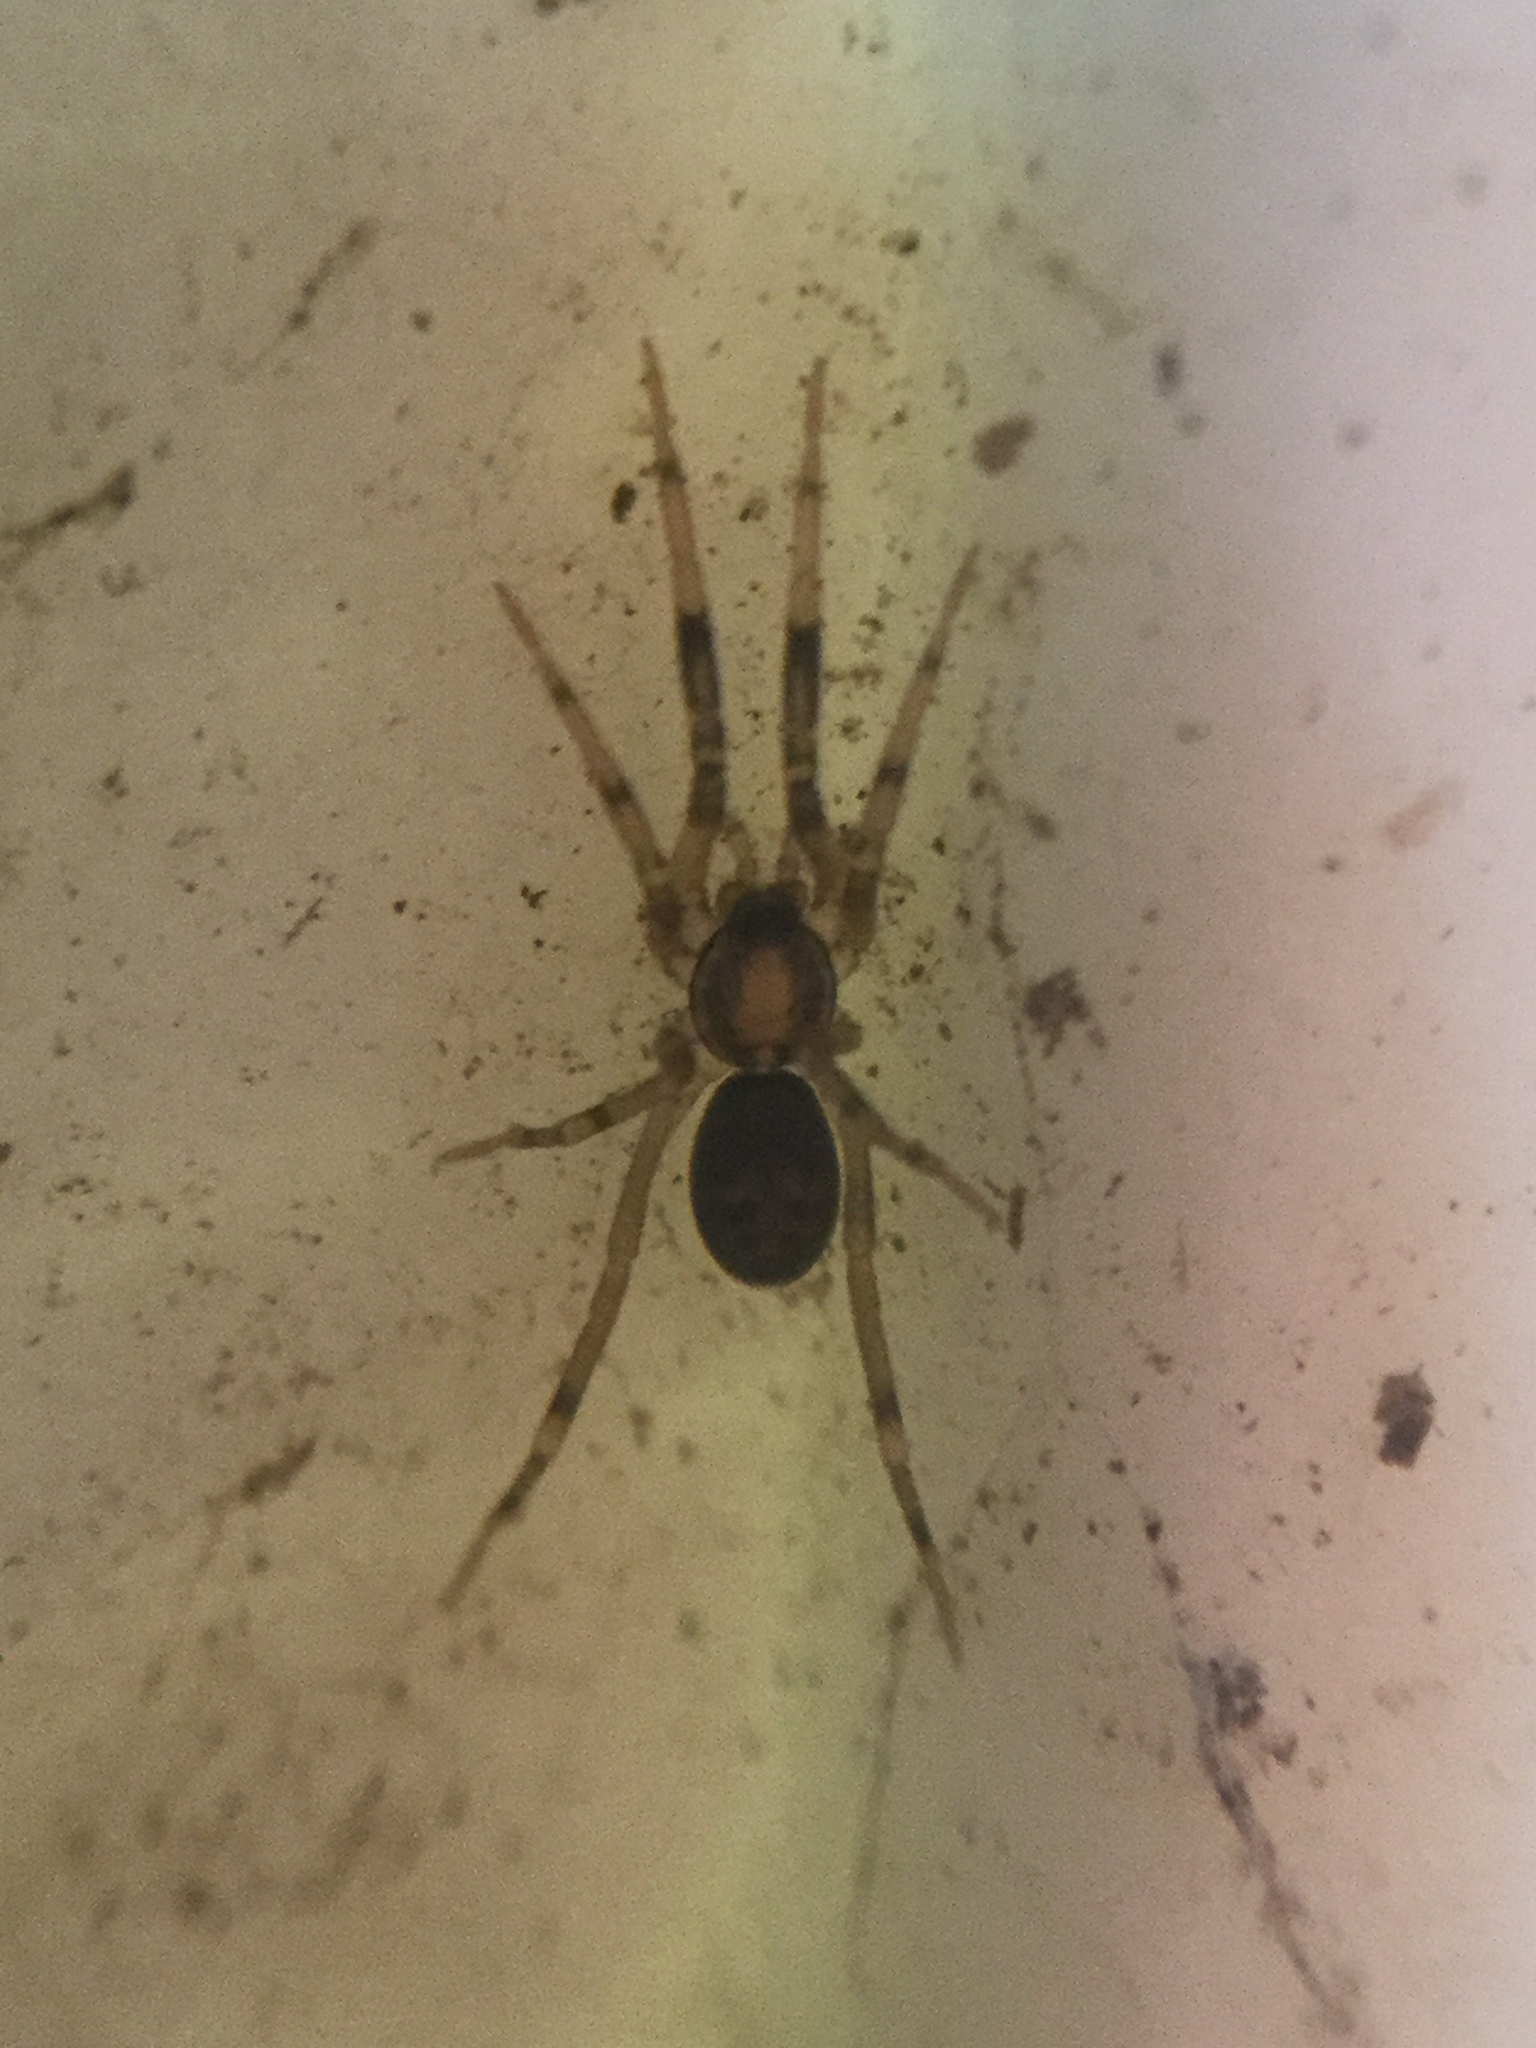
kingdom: Animalia
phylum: Arthropoda
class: Arachnida
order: Araneae
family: Phrurolithidae
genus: Phrurotimpus
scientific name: Phrurotimpus borealis
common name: Greater ant-mimic corinne spider
